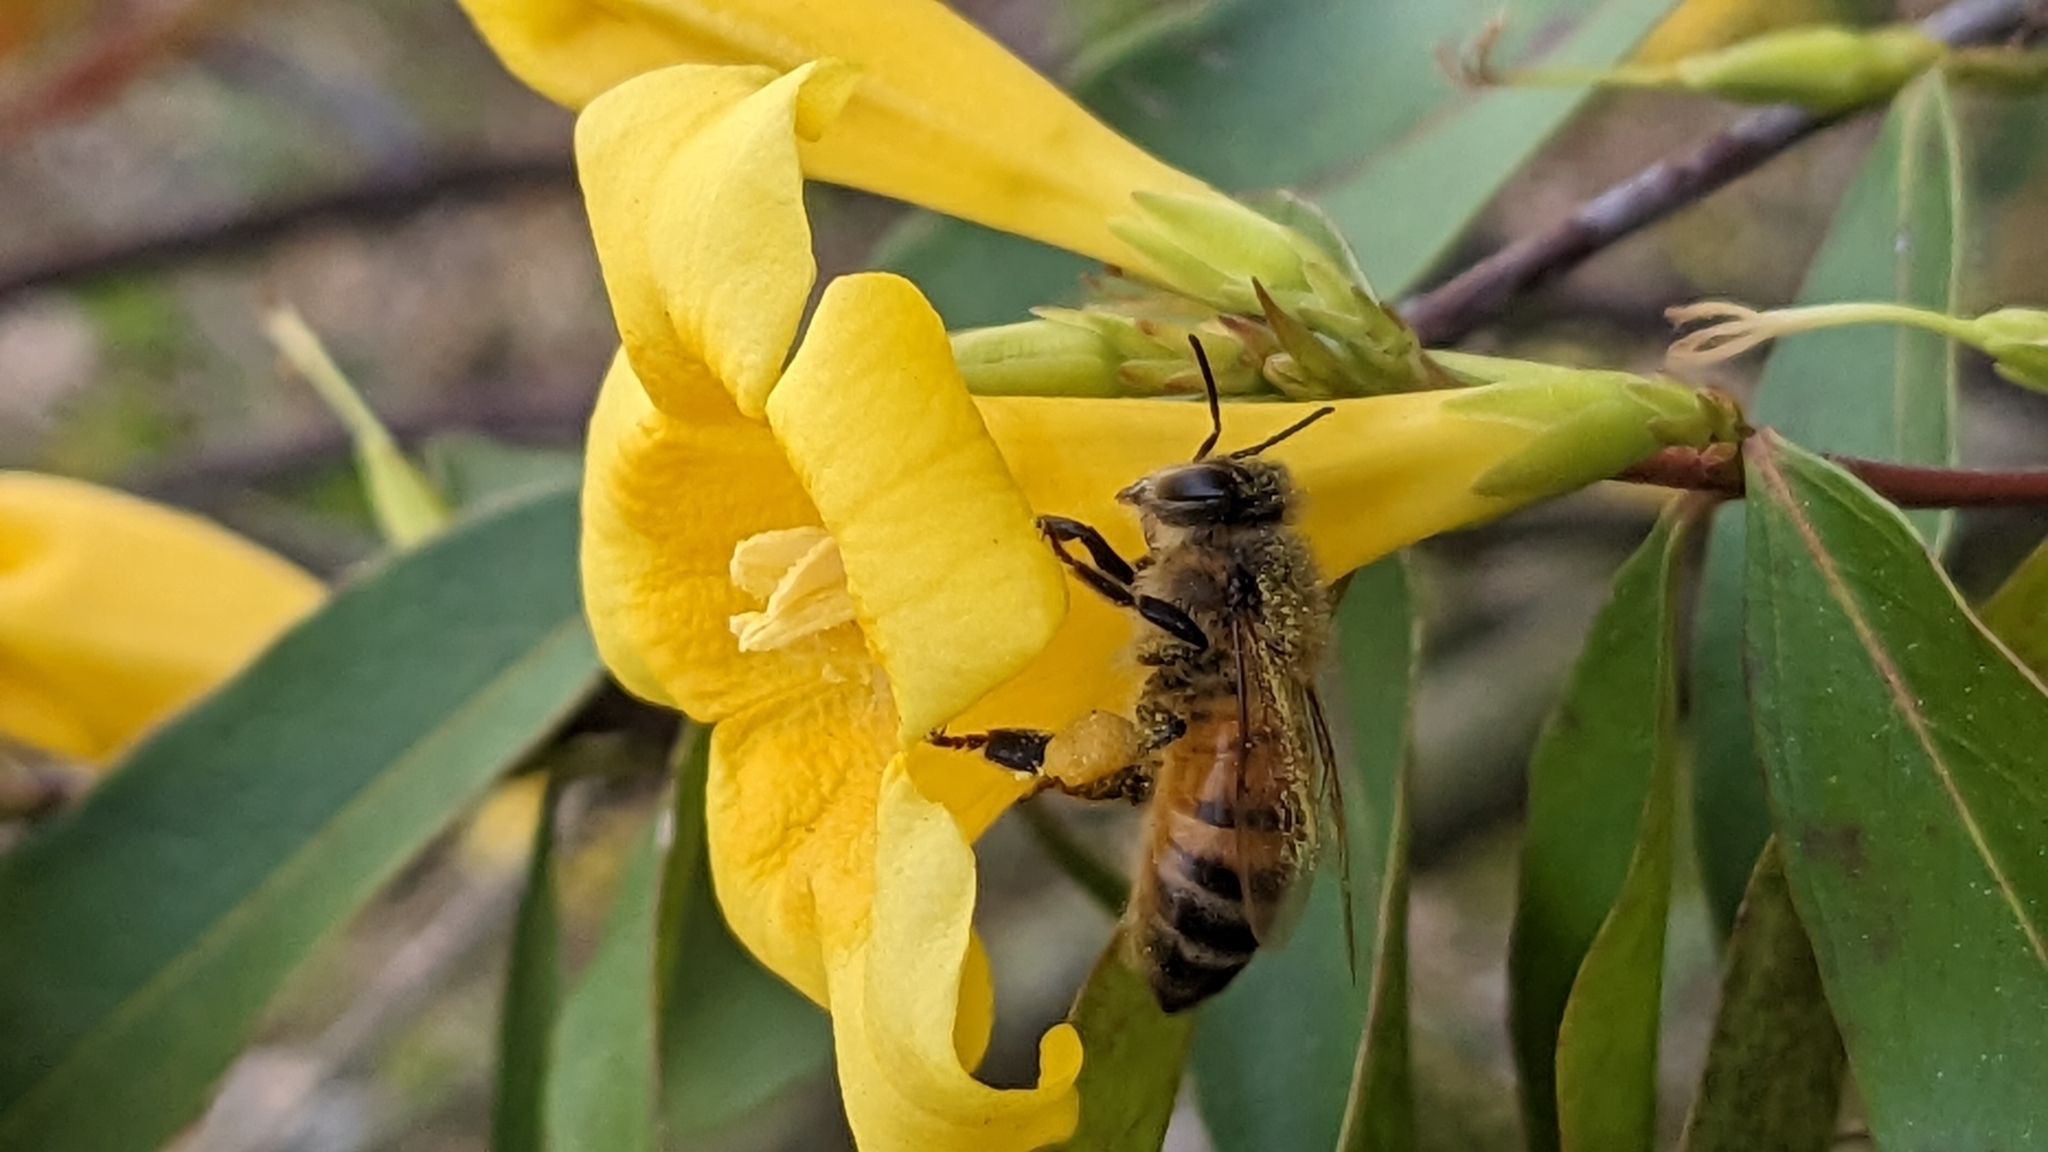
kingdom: Animalia
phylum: Arthropoda
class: Insecta
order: Hymenoptera
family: Apidae
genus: Apis
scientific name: Apis mellifera
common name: Honey bee
